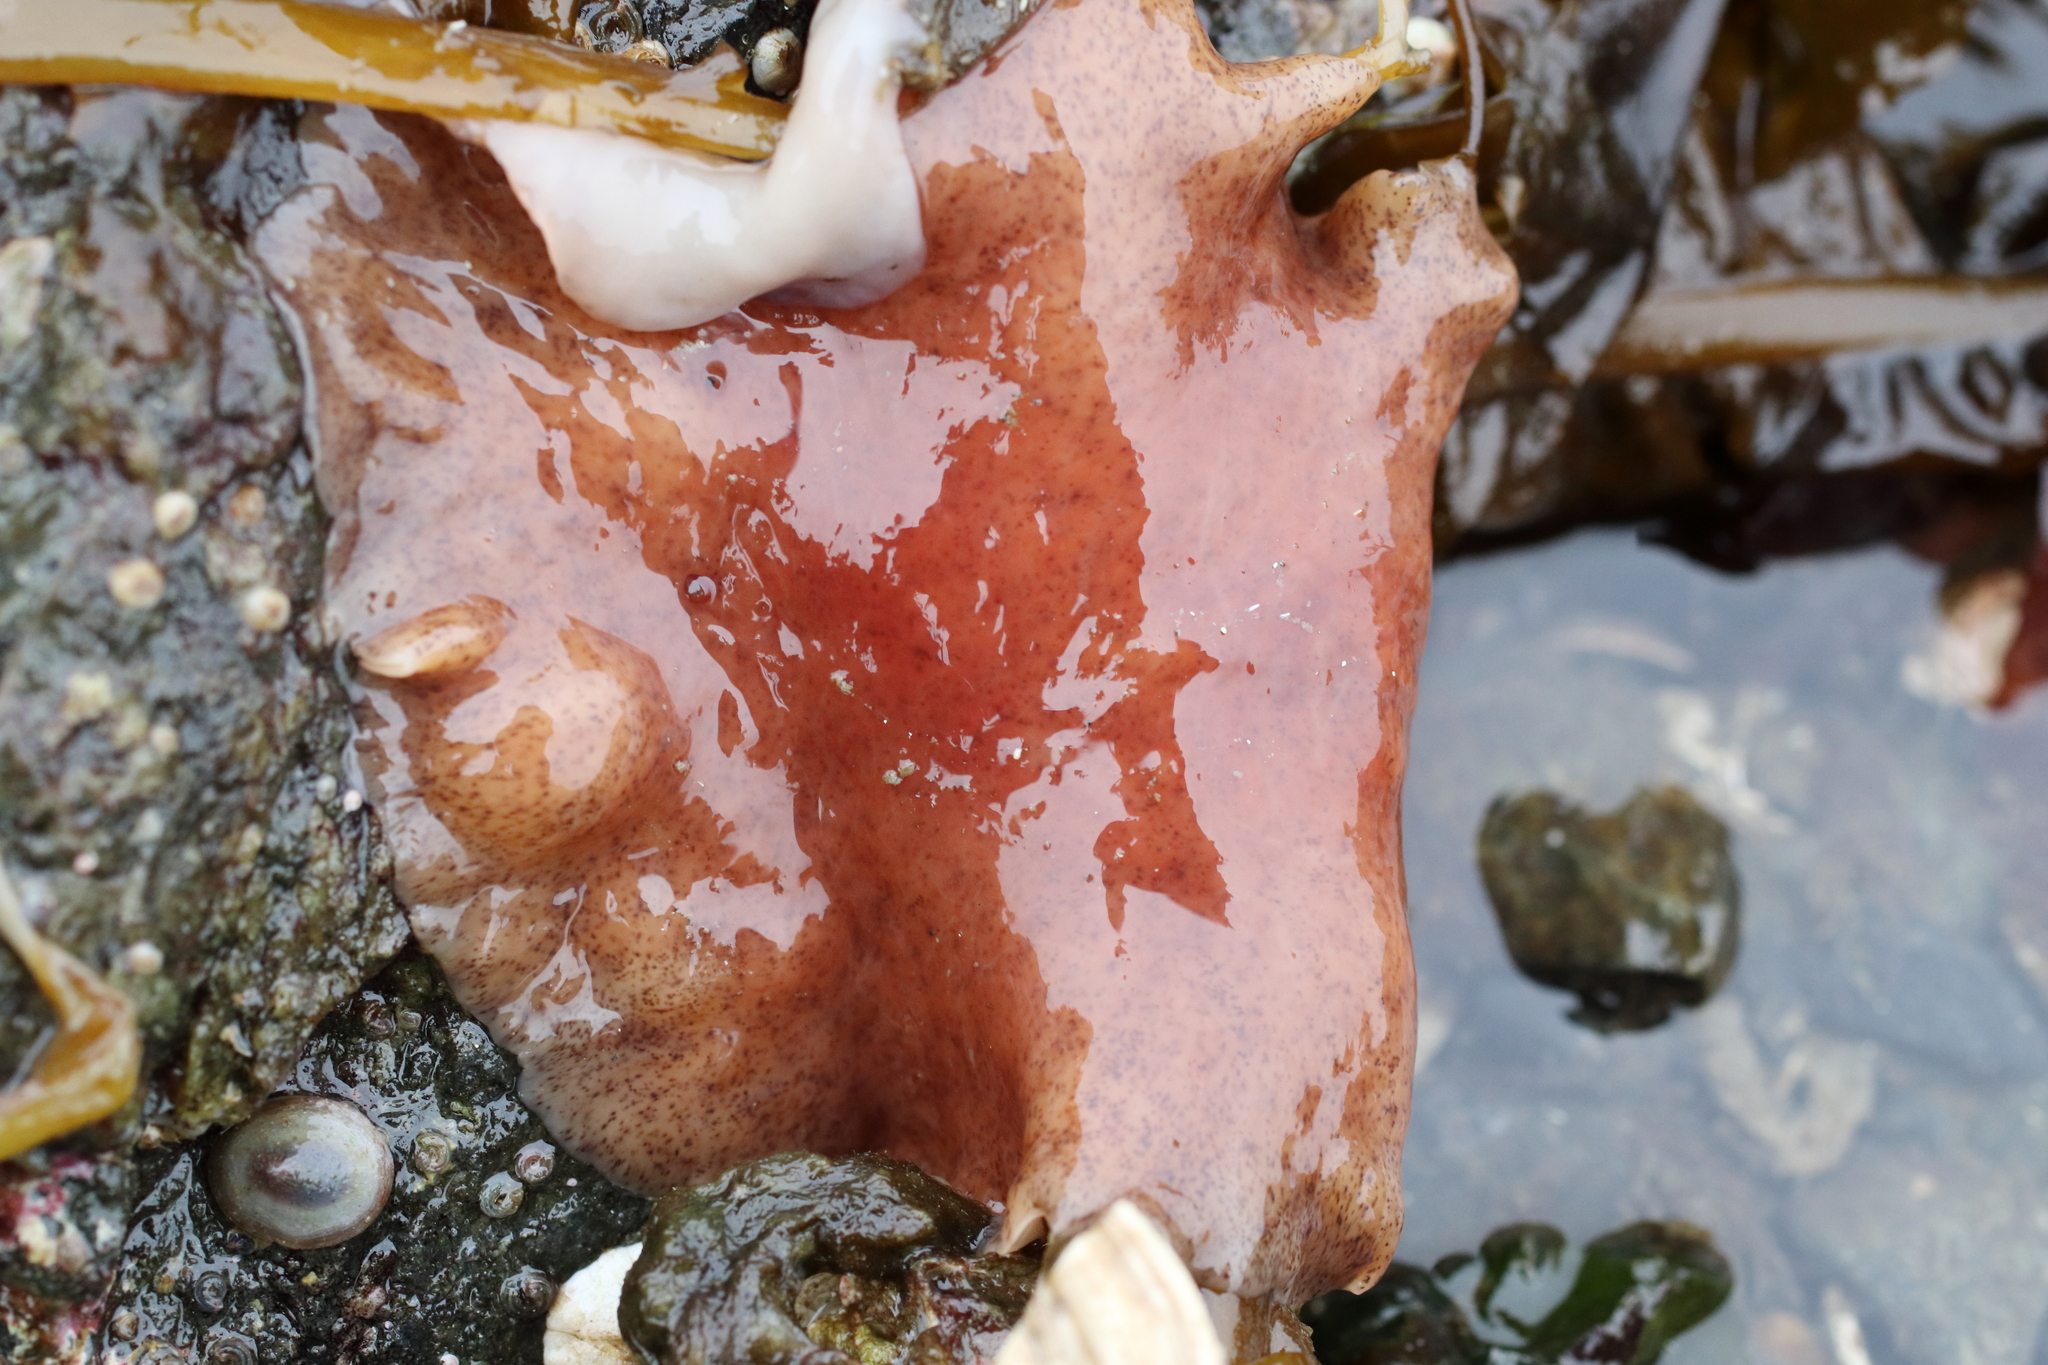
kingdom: Animalia
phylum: Platyhelminthes
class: Turbellaria
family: Callioplanidae
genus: Kaburakia
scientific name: Kaburakia excelsa
